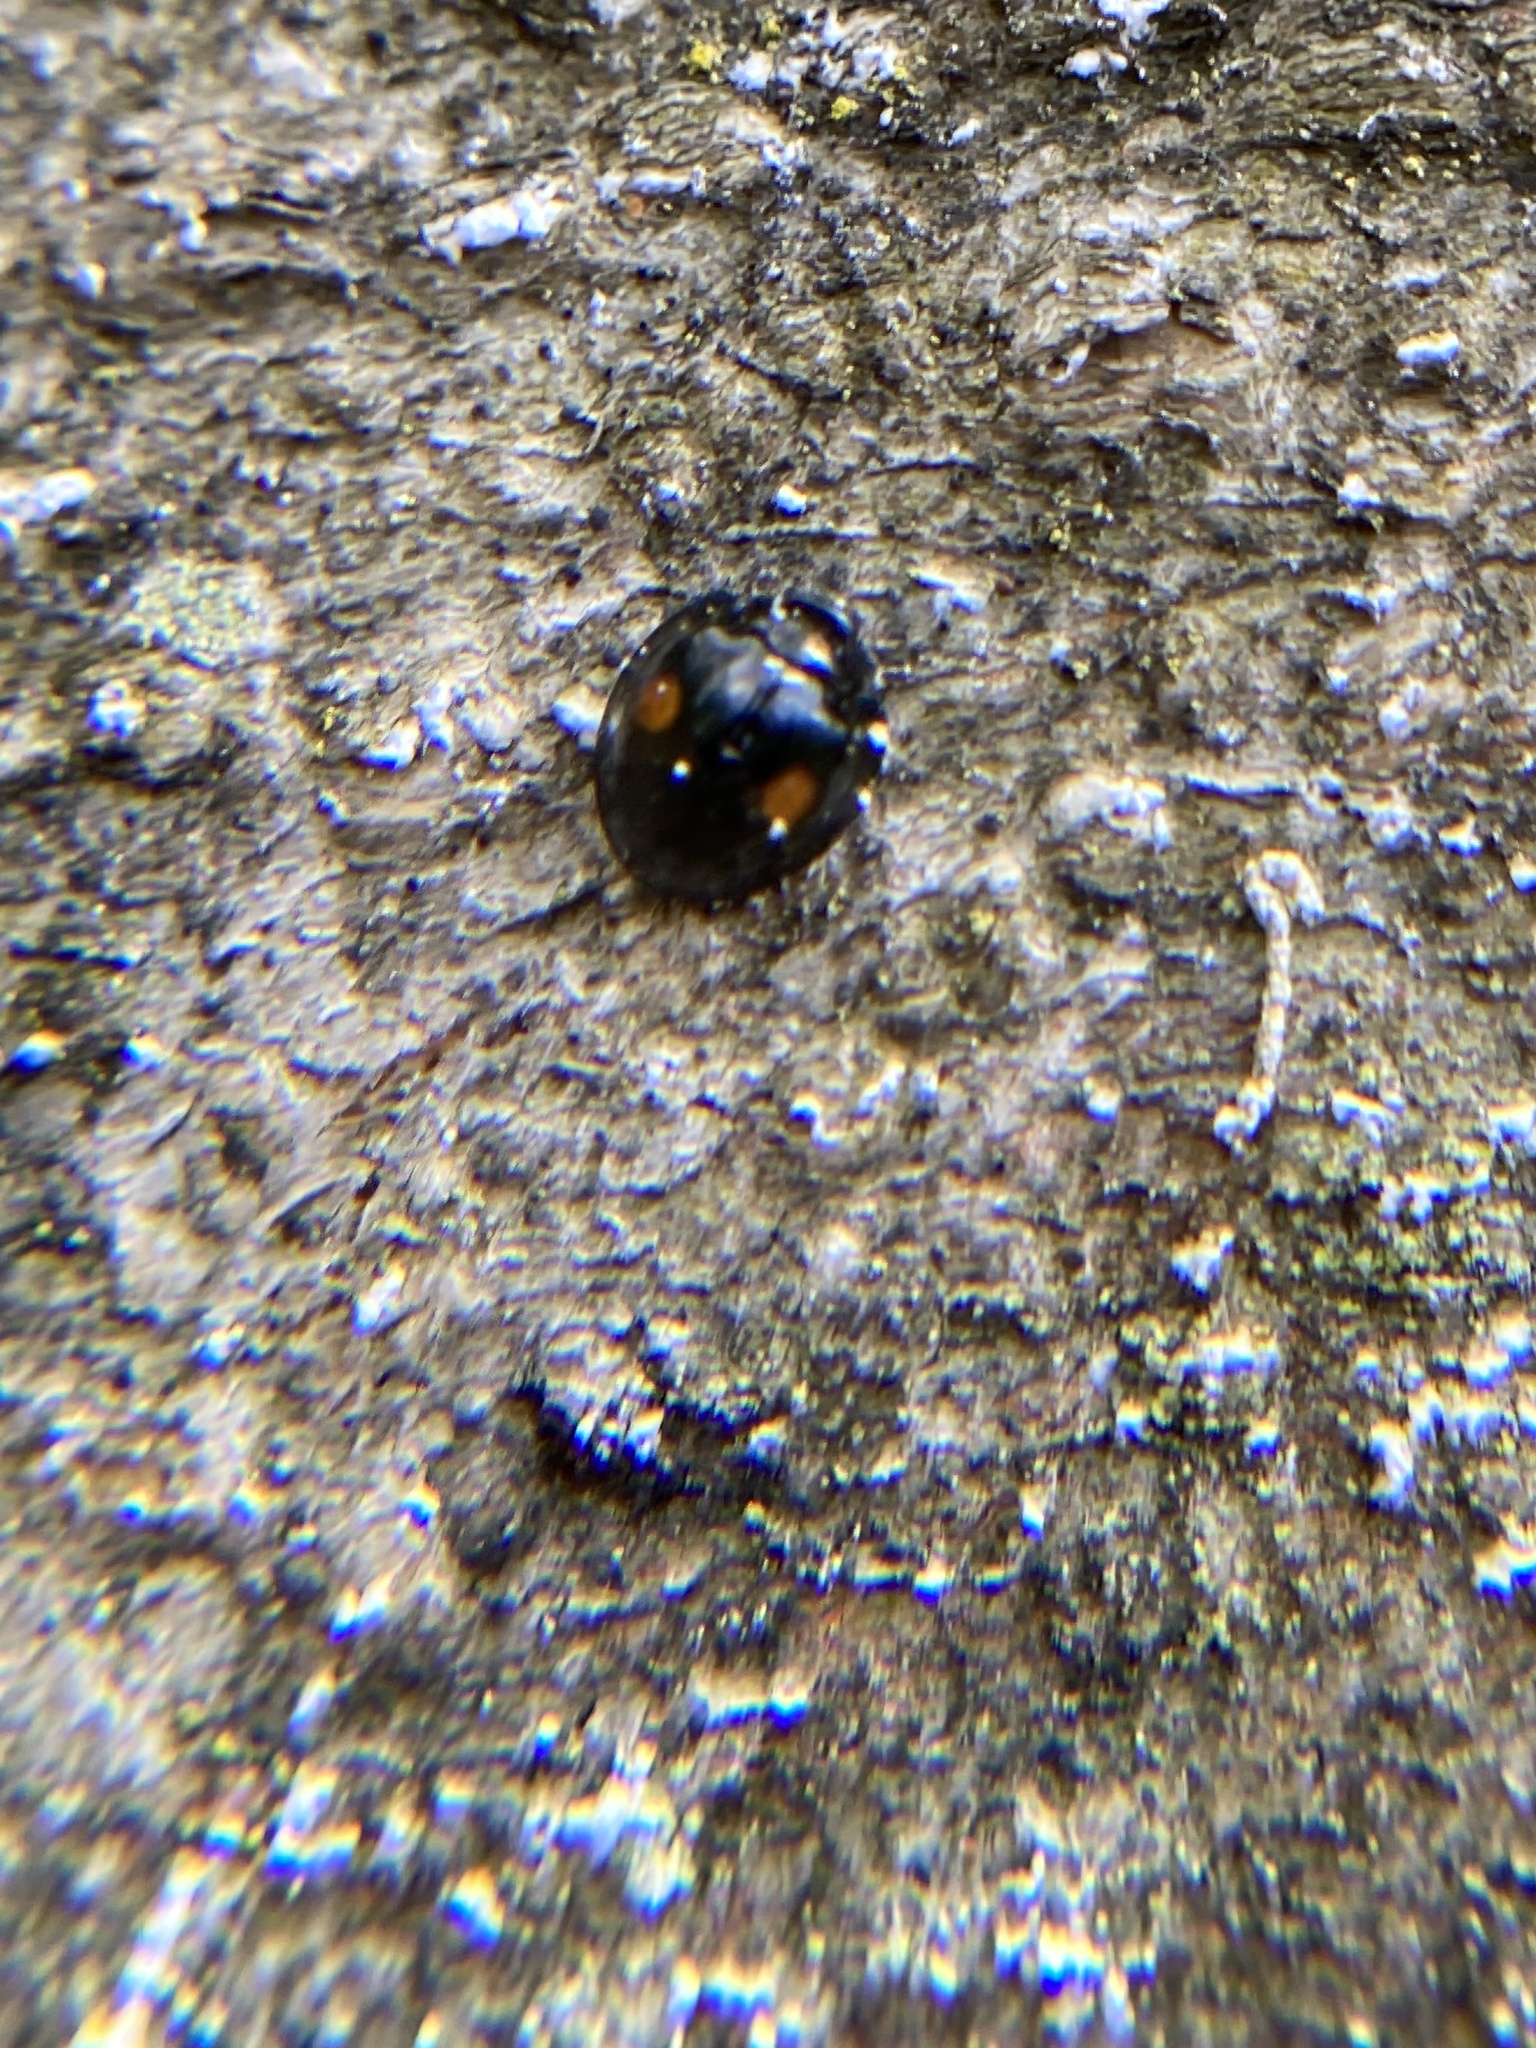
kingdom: Animalia
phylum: Arthropoda
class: Insecta
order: Coleoptera
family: Coccinellidae
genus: Chilocorus
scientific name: Chilocorus stigma
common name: Twicestabbed lady beetle
